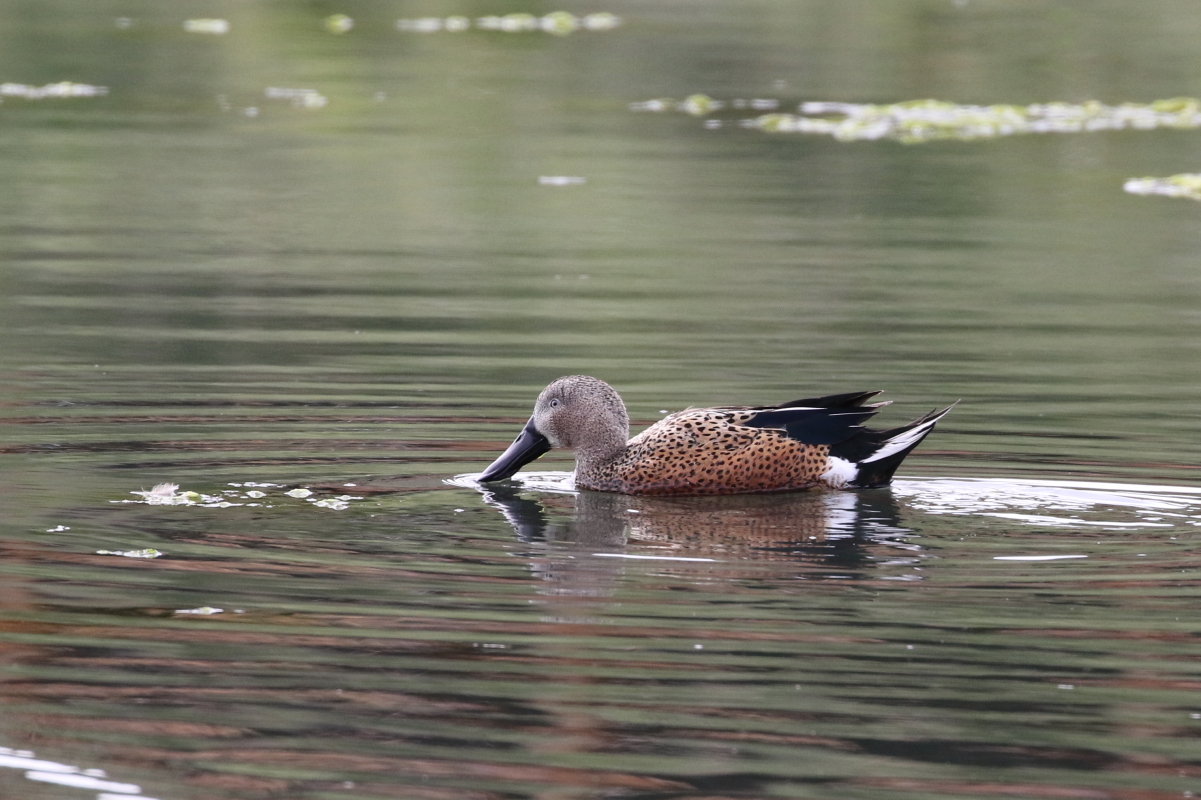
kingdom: Animalia
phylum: Chordata
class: Aves
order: Anseriformes
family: Anatidae
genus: Spatula
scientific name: Spatula platalea
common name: Red shoveler
